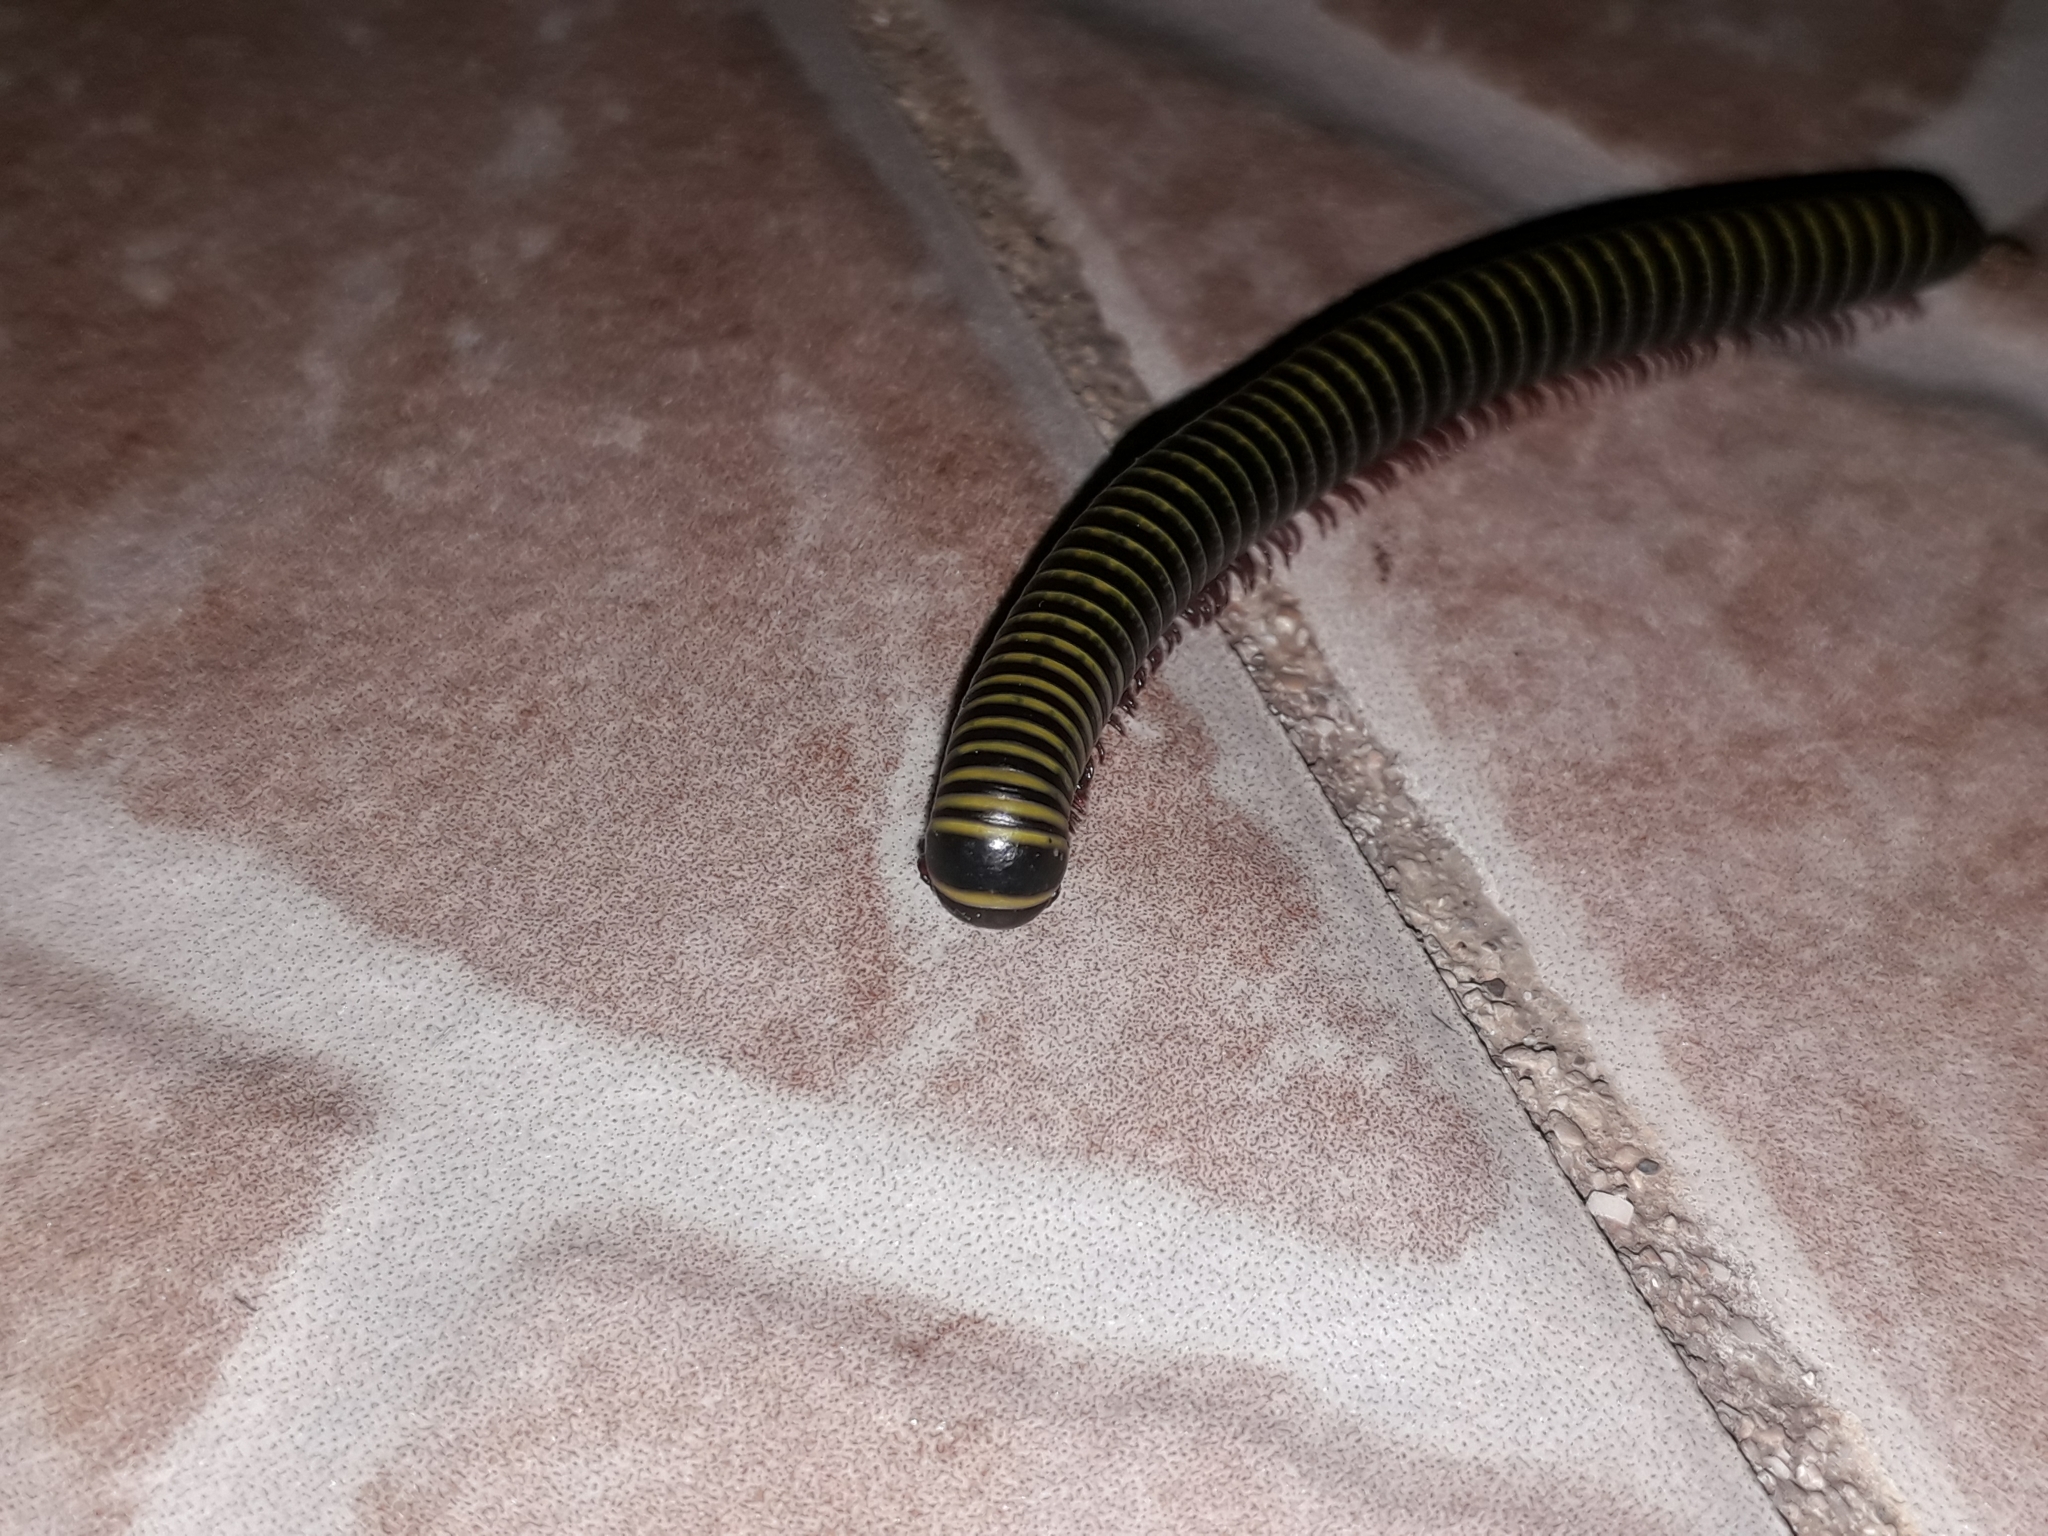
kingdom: Animalia
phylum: Arthropoda
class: Diplopoda
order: Spirobolida
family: Rhinocricidae
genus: Anadenobolus
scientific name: Anadenobolus monilicornis
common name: Caribbean millipede
